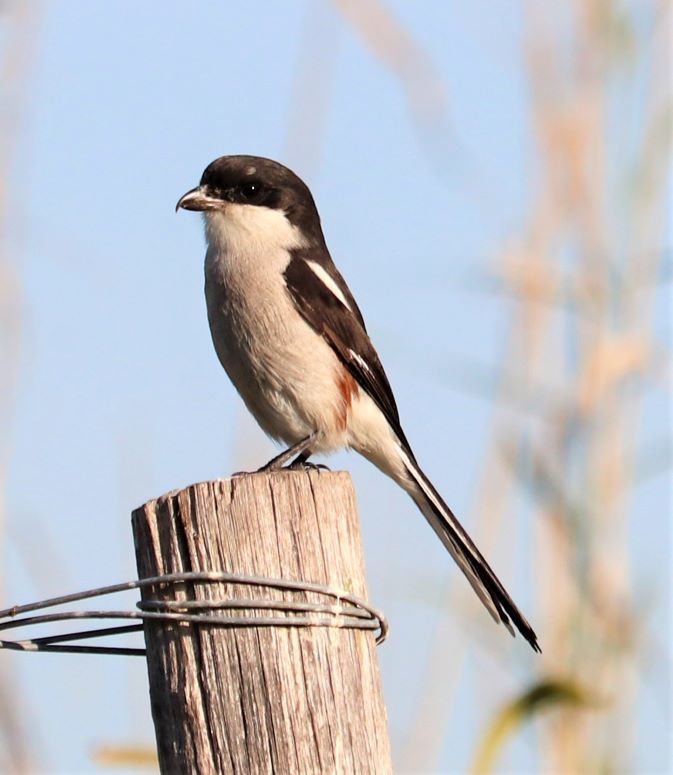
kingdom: Animalia
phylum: Chordata
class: Aves
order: Passeriformes
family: Laniidae
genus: Lanius
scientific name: Lanius collaris
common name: Southern fiscal
